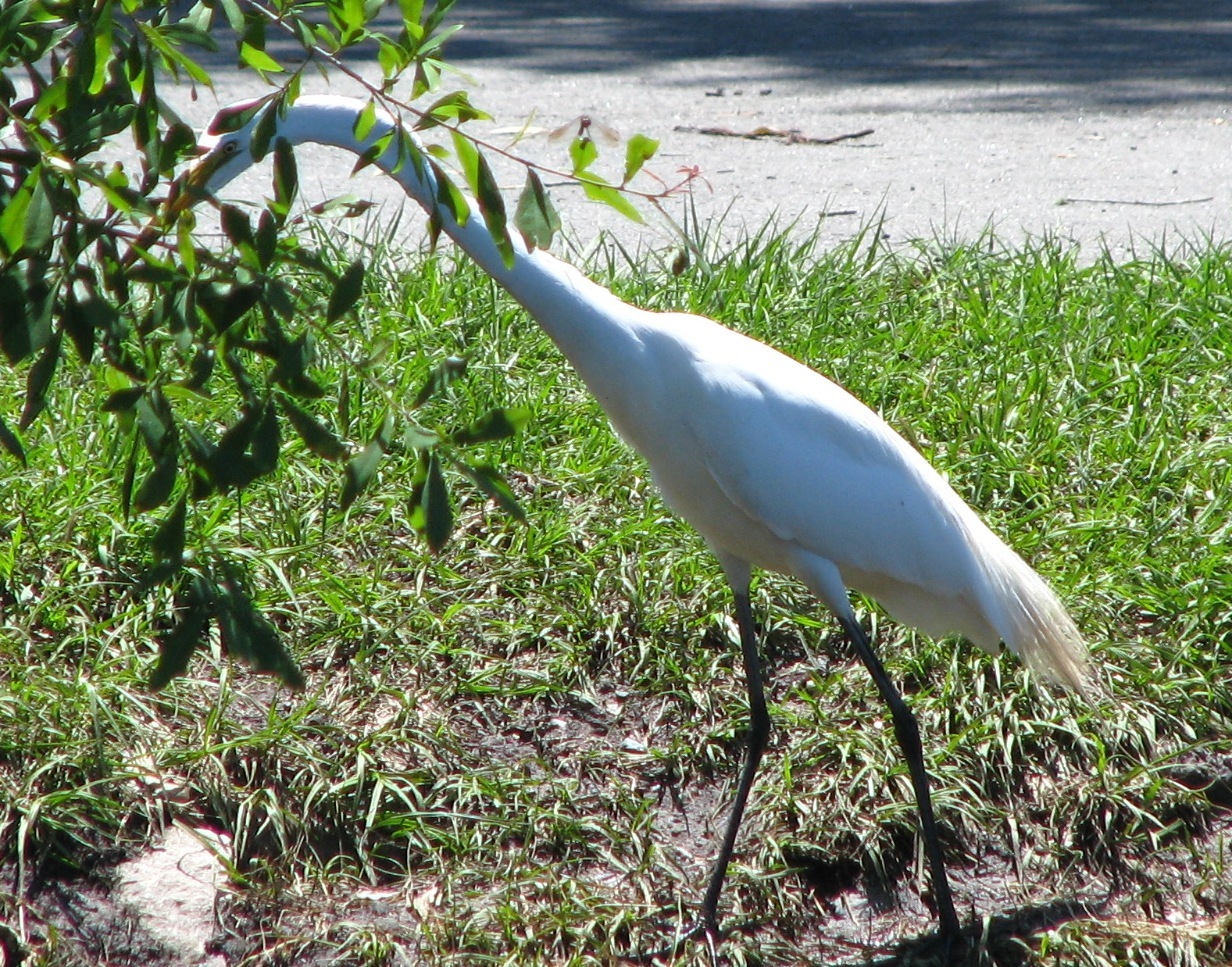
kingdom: Animalia
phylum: Chordata
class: Aves
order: Pelecaniformes
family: Ardeidae
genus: Ardea
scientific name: Ardea alba
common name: Great egret
